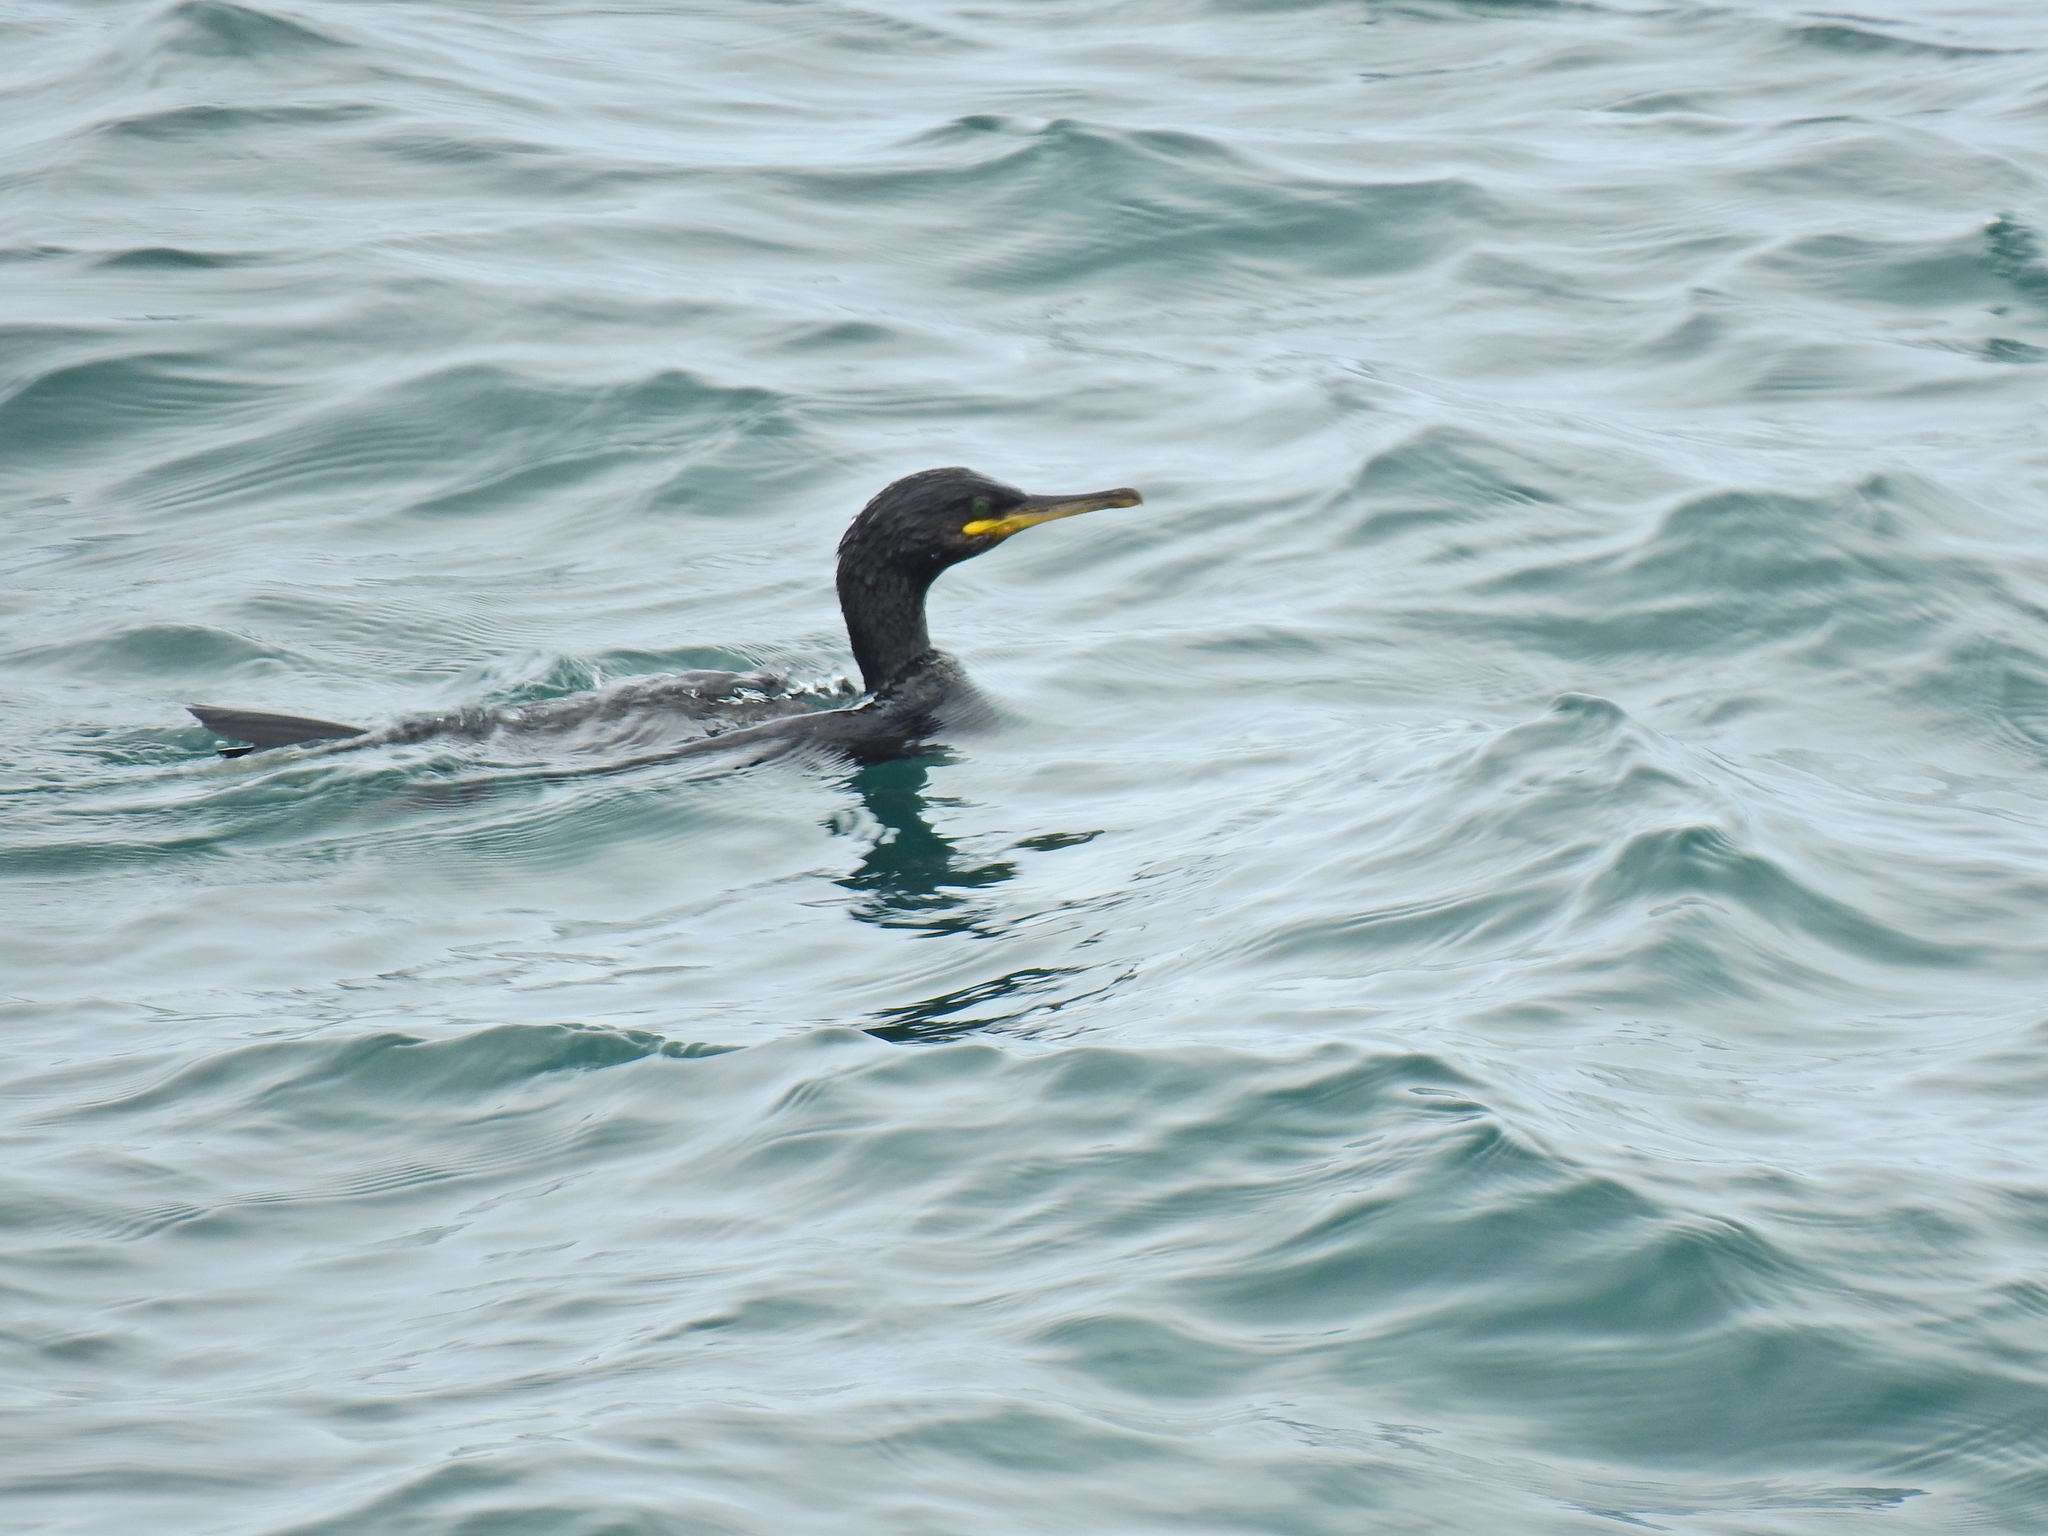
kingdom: Animalia
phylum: Chordata
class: Aves
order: Suliformes
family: Phalacrocoracidae
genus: Phalacrocorax
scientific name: Phalacrocorax aristotelis
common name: European shag
